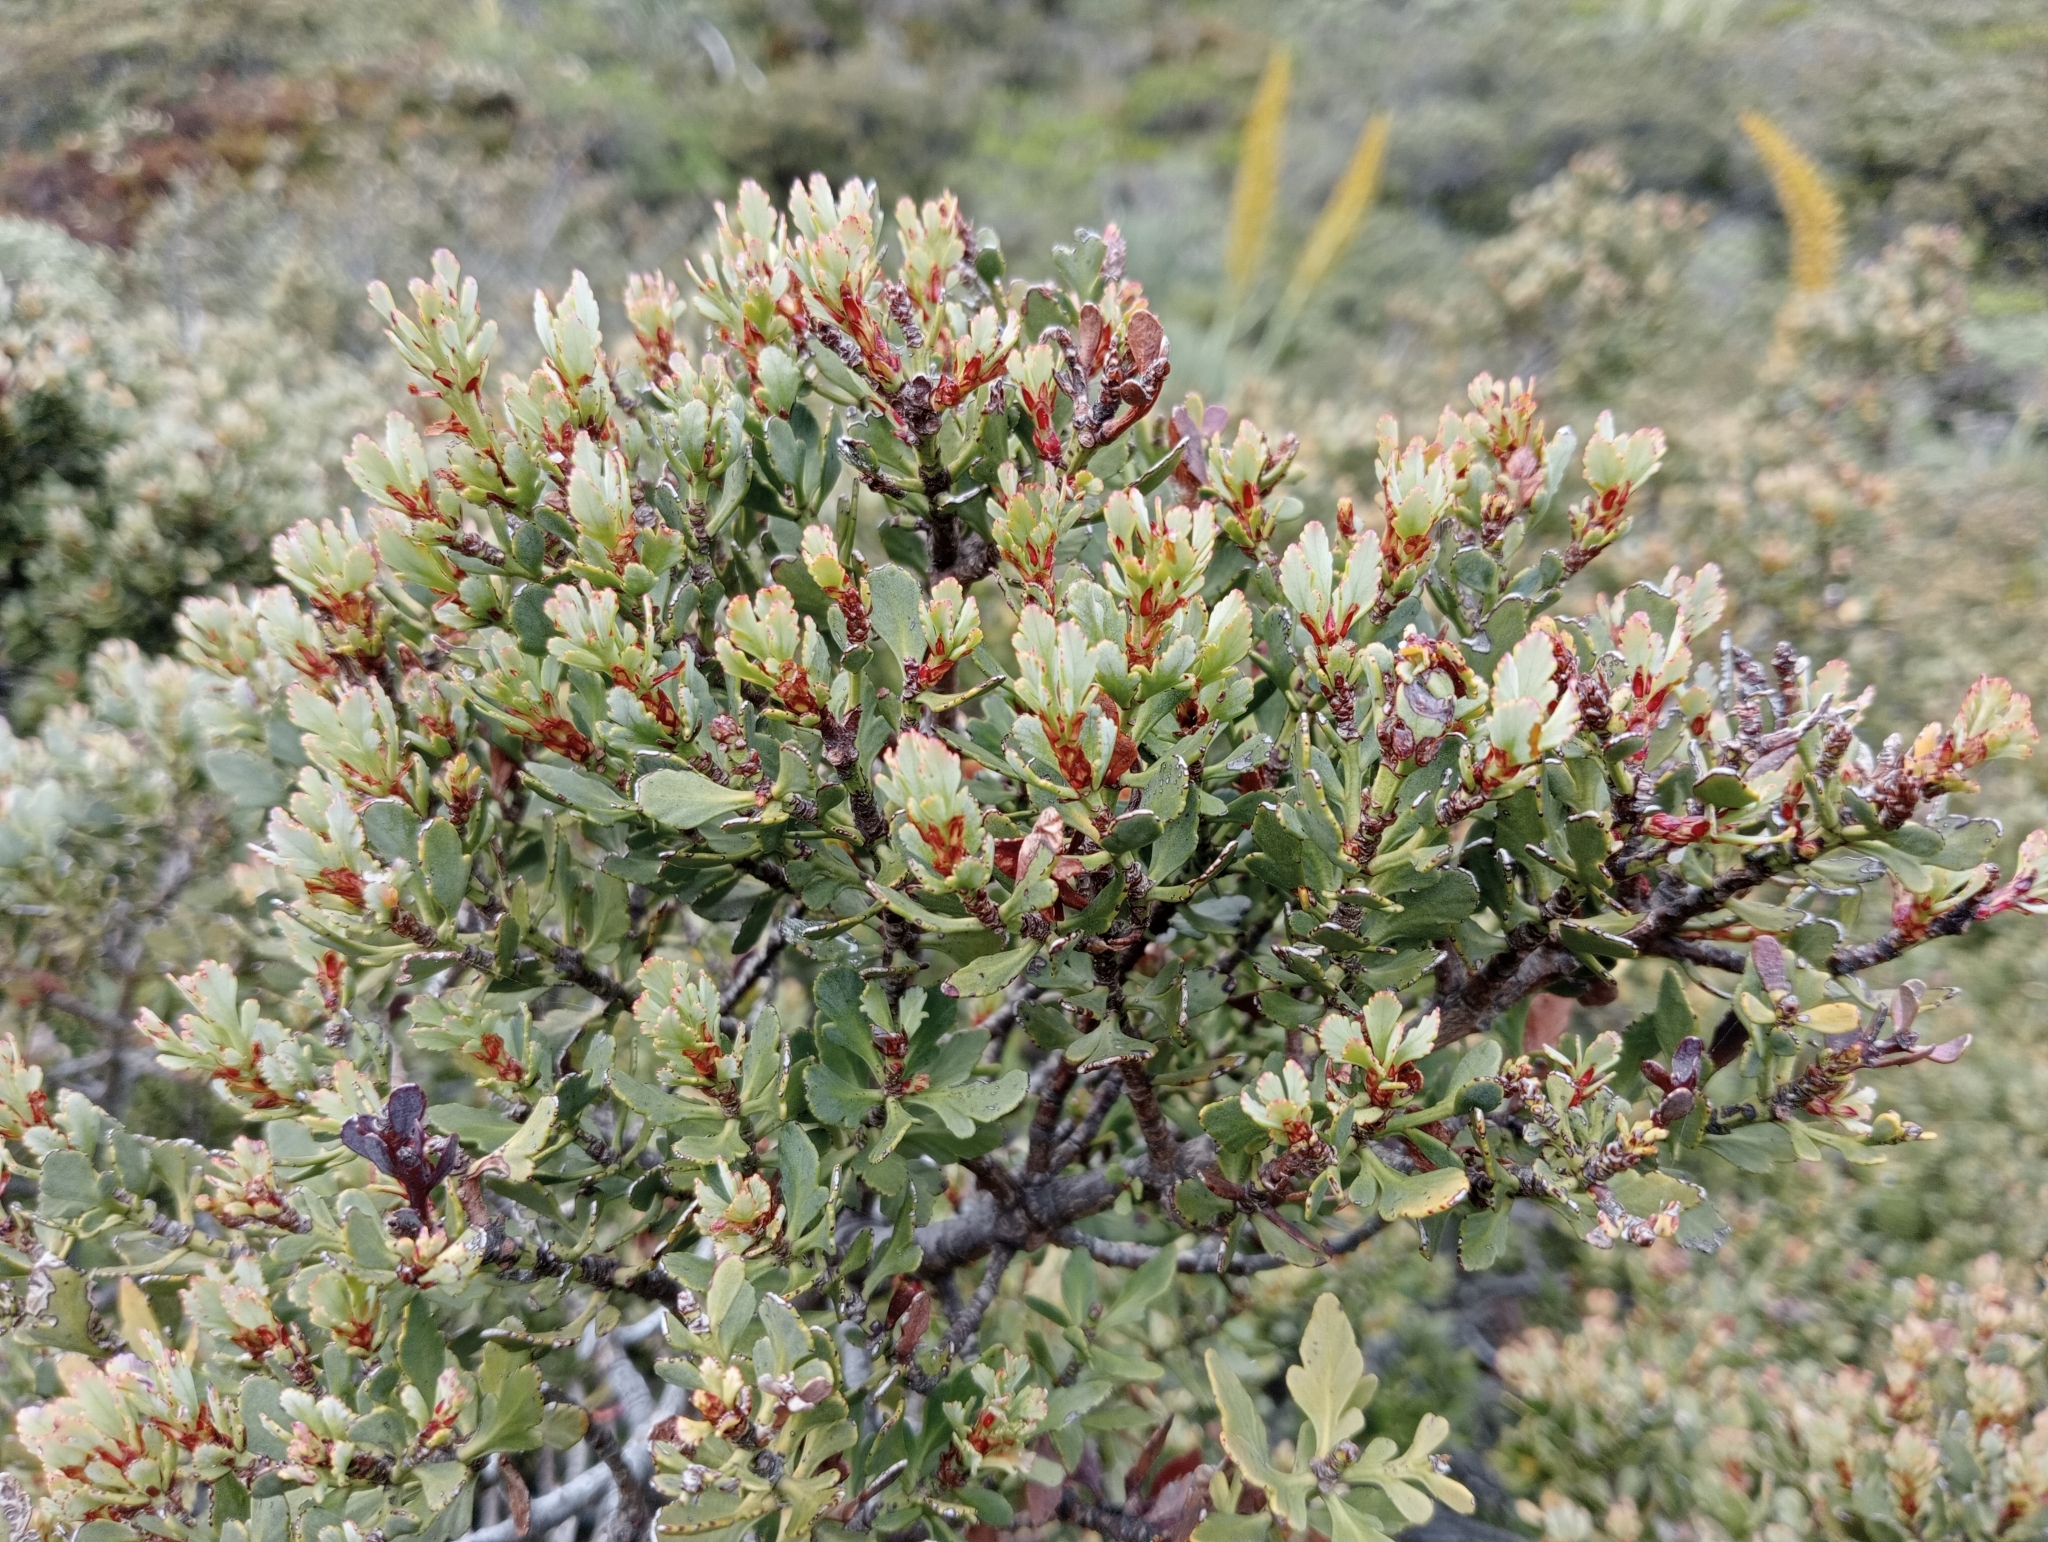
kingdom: Plantae
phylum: Tracheophyta
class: Pinopsida
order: Pinales
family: Phyllocladaceae
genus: Phyllocladus
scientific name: Phyllocladus trichomanoides
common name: Celery pine
